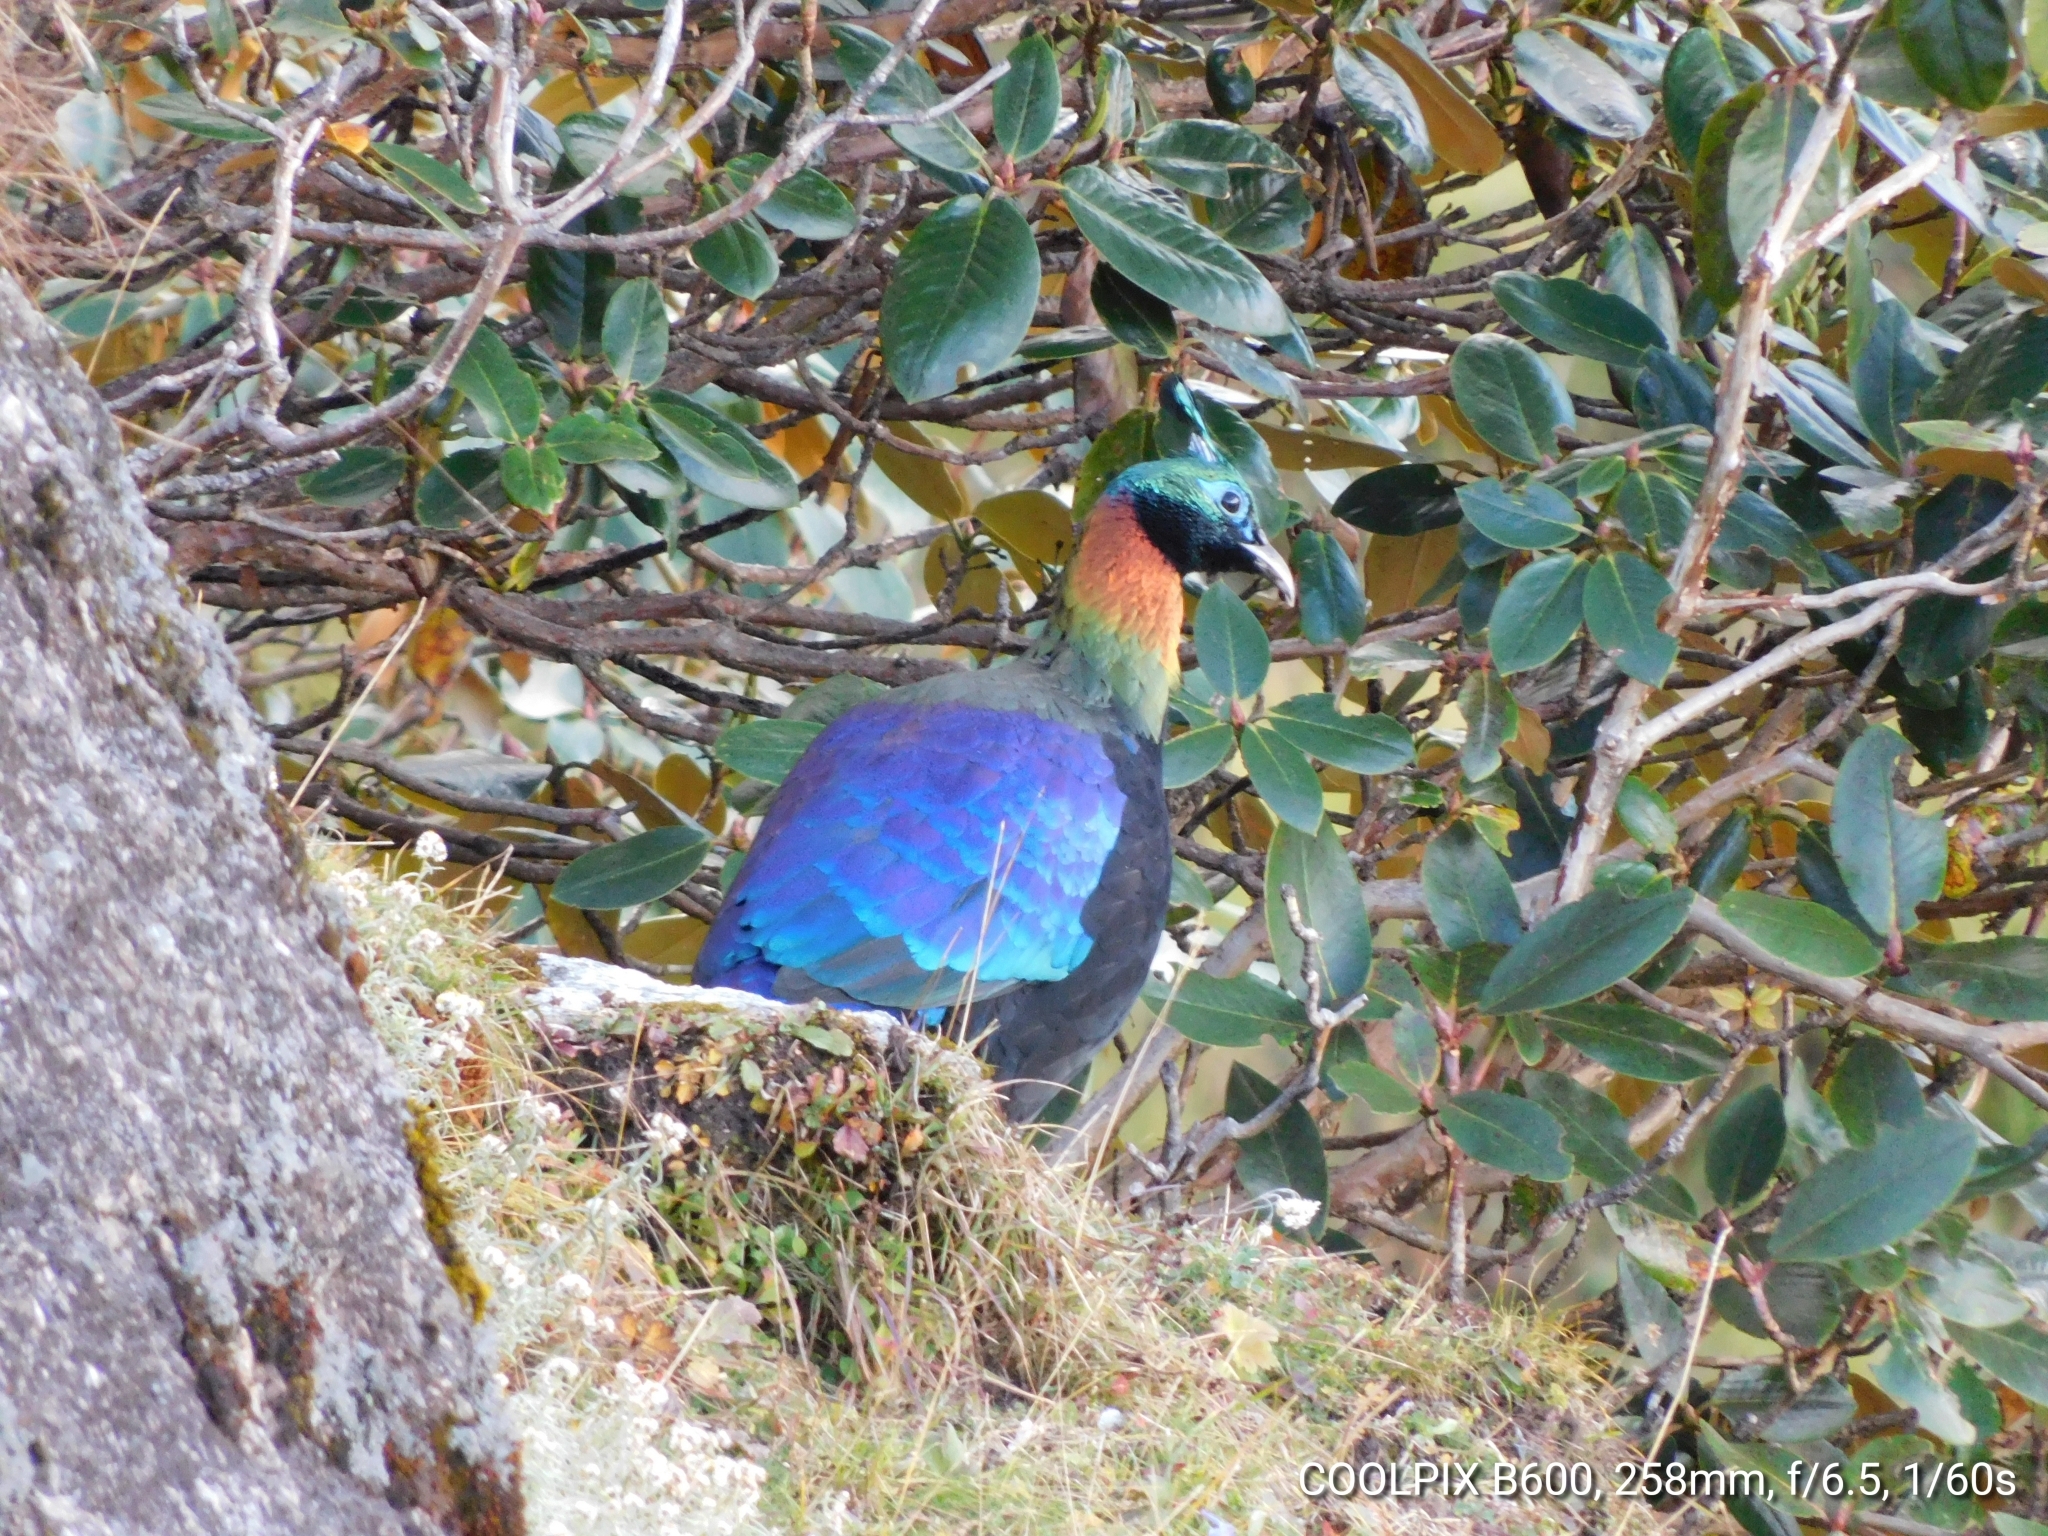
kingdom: Animalia
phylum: Chordata
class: Aves
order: Galliformes
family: Phasianidae
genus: Lophophorus
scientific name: Lophophorus impejanus
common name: Himalayan monal
